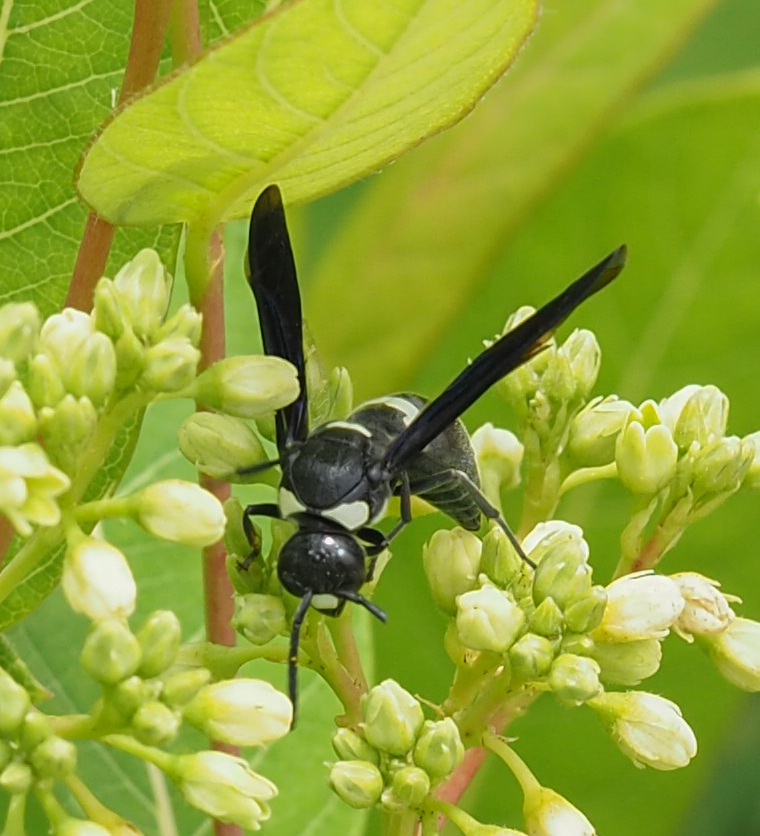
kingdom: Animalia
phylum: Arthropoda
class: Insecta
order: Hymenoptera
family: Eumenidae
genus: Monobia
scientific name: Monobia quadridens
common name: Four-toothed mason wasp
